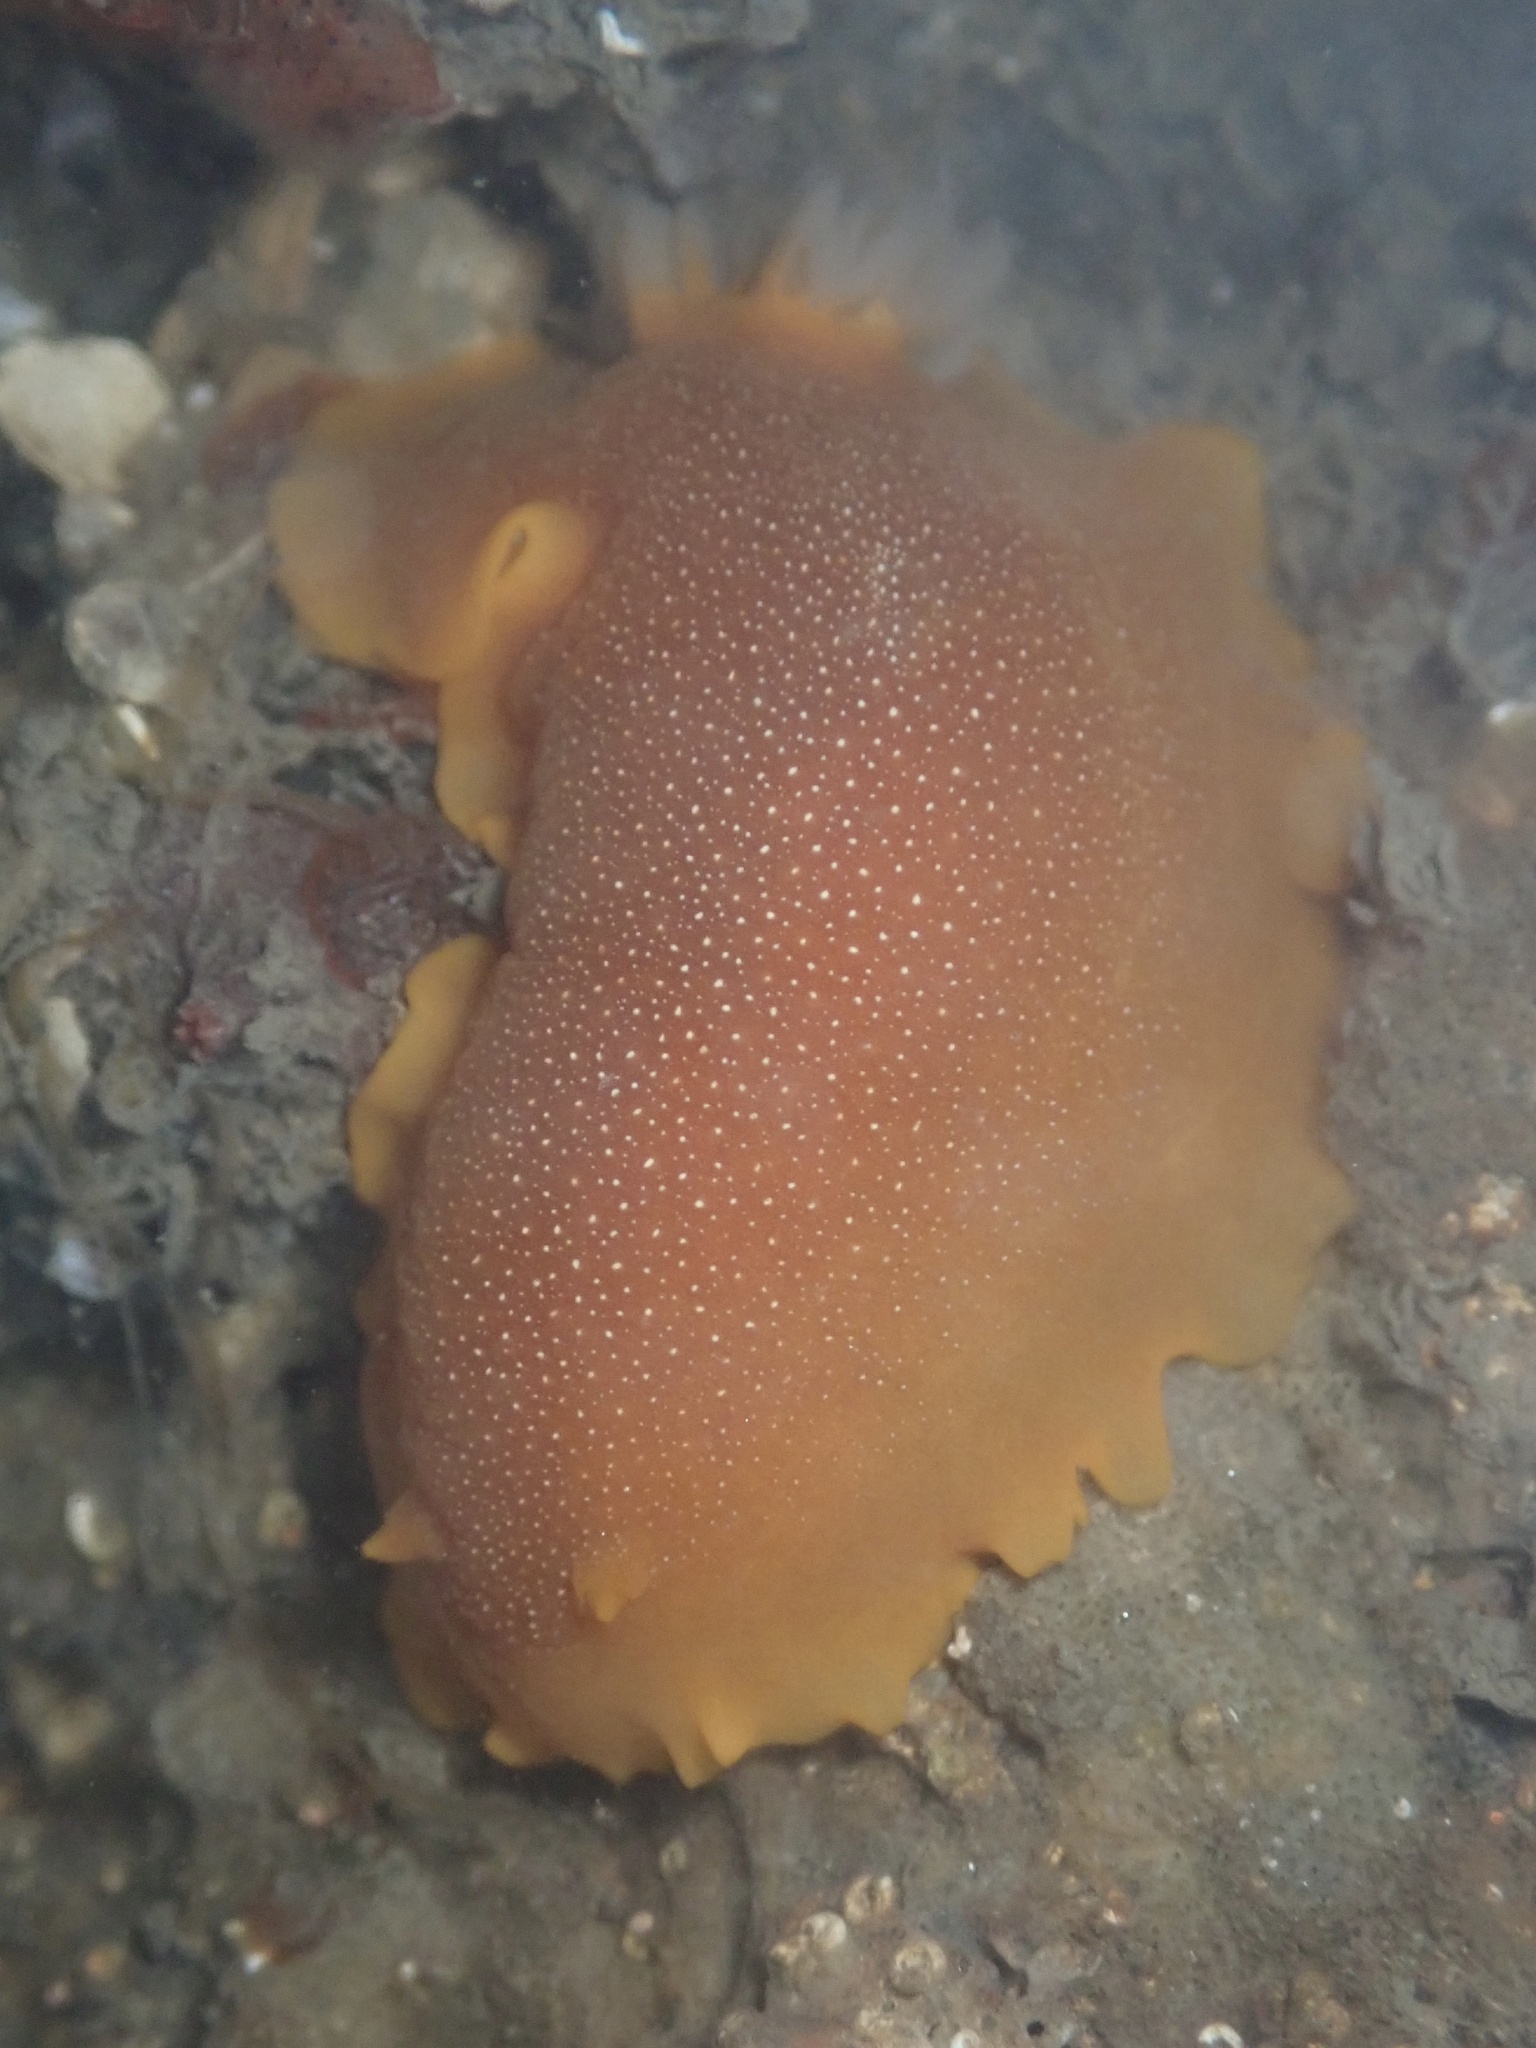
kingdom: Animalia
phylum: Mollusca
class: Gastropoda
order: Nudibranchia
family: Dendrodorididae
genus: Doriopsilla
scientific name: Doriopsilla albopunctata
